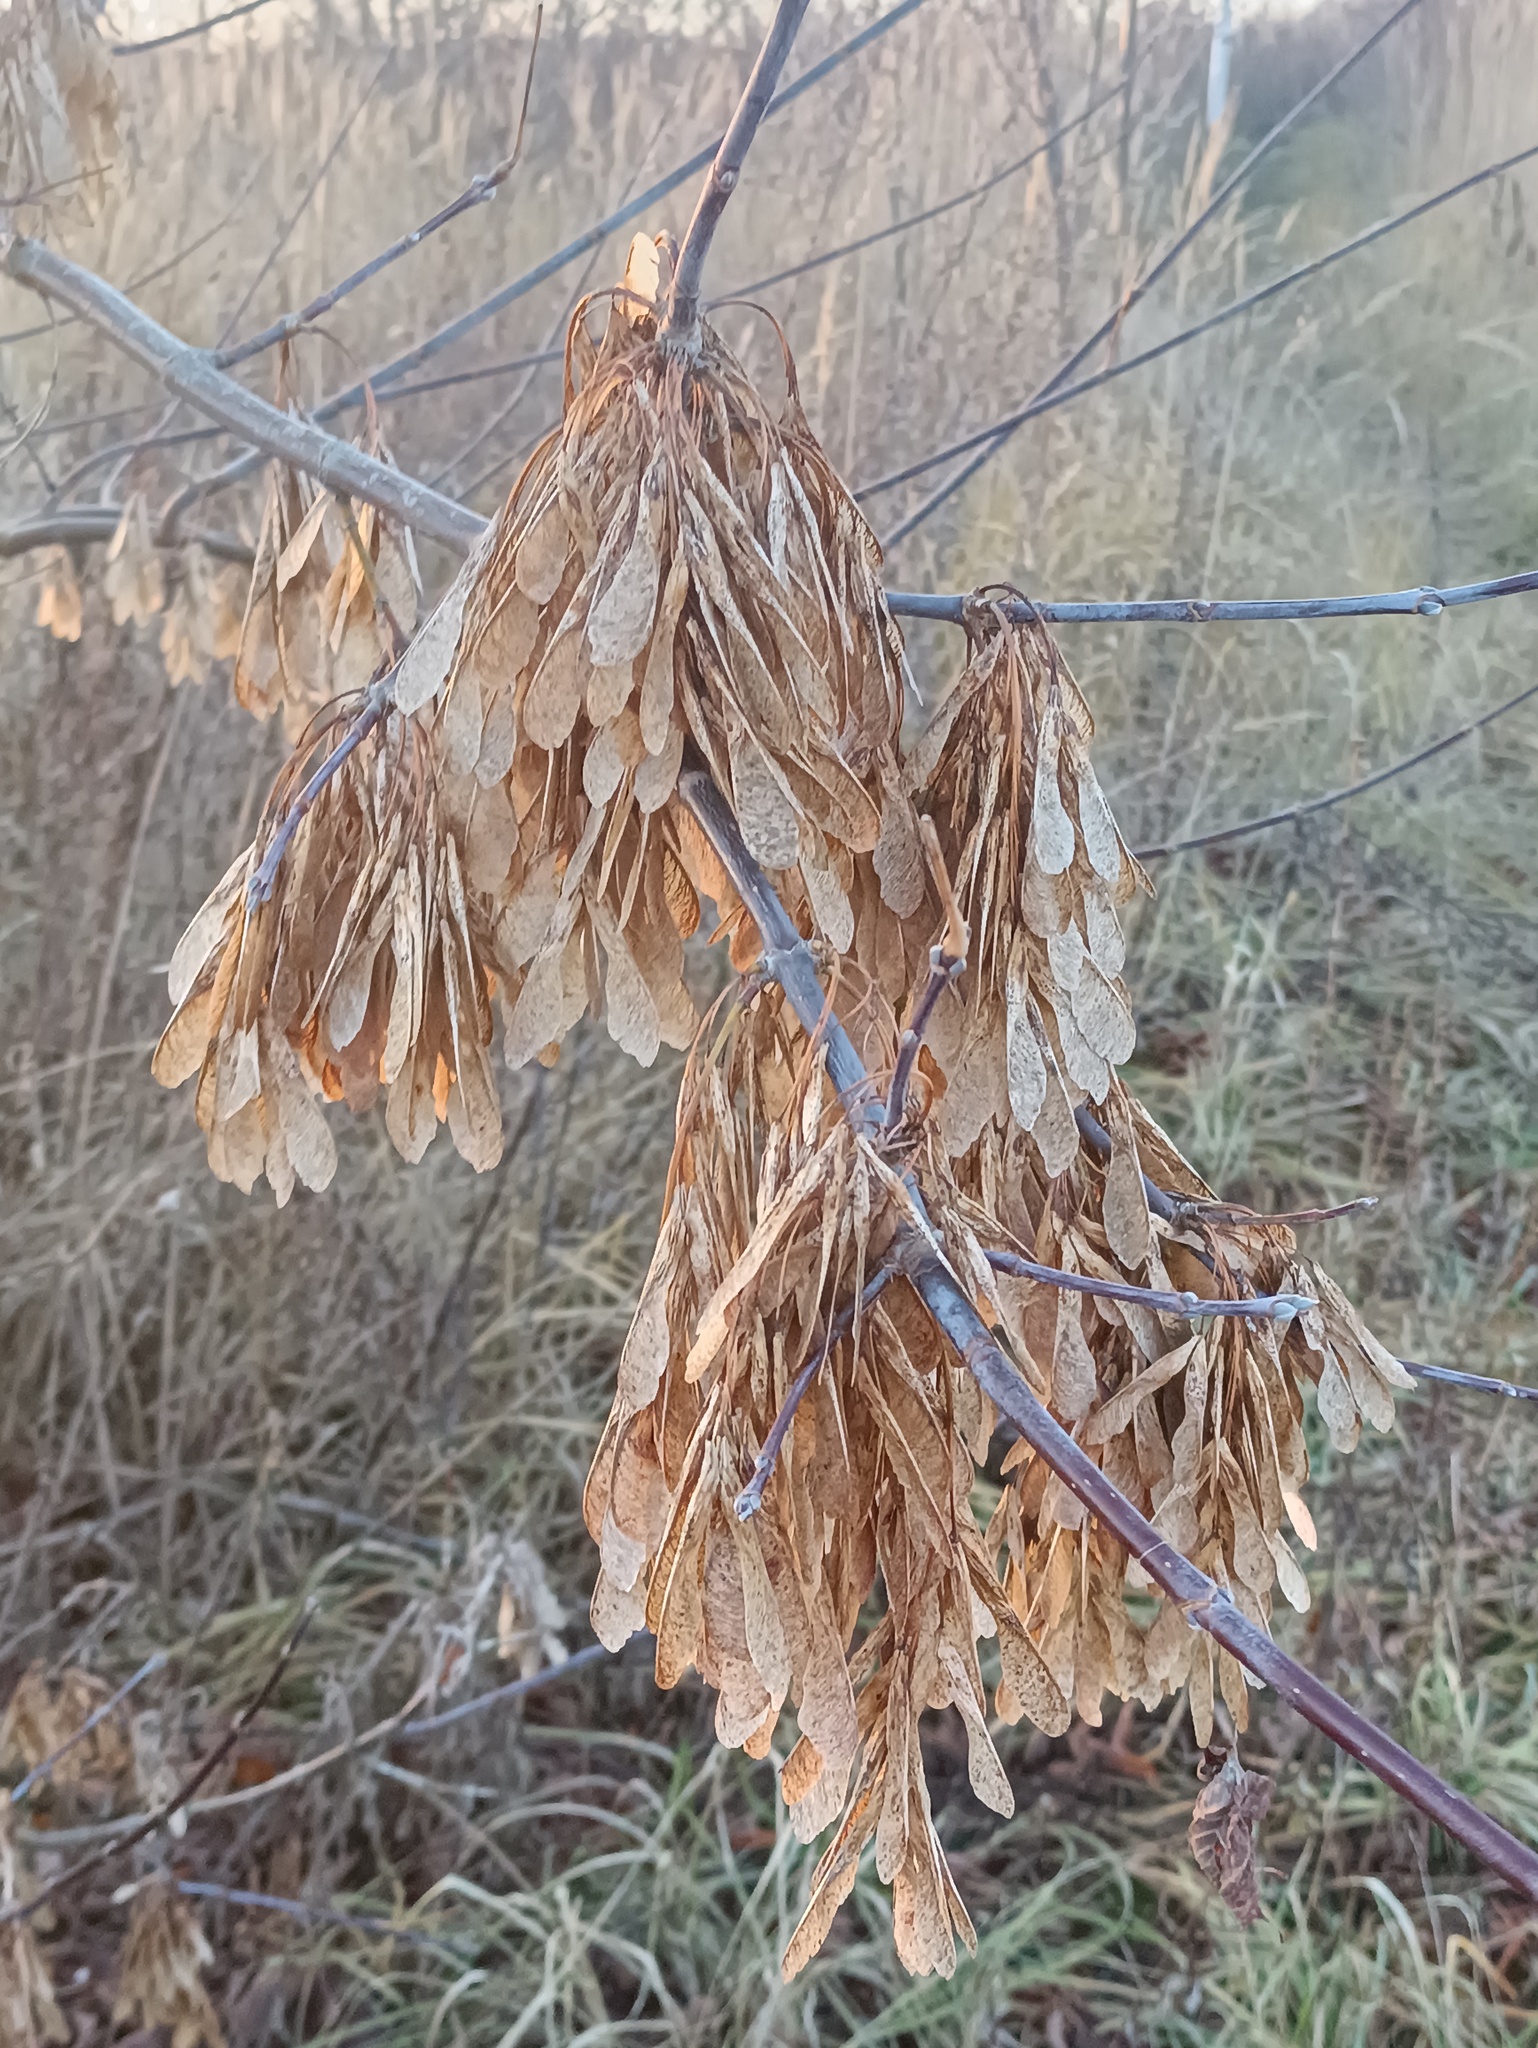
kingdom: Plantae
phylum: Tracheophyta
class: Magnoliopsida
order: Sapindales
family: Sapindaceae
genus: Acer
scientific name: Acer negundo
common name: Ashleaf maple
